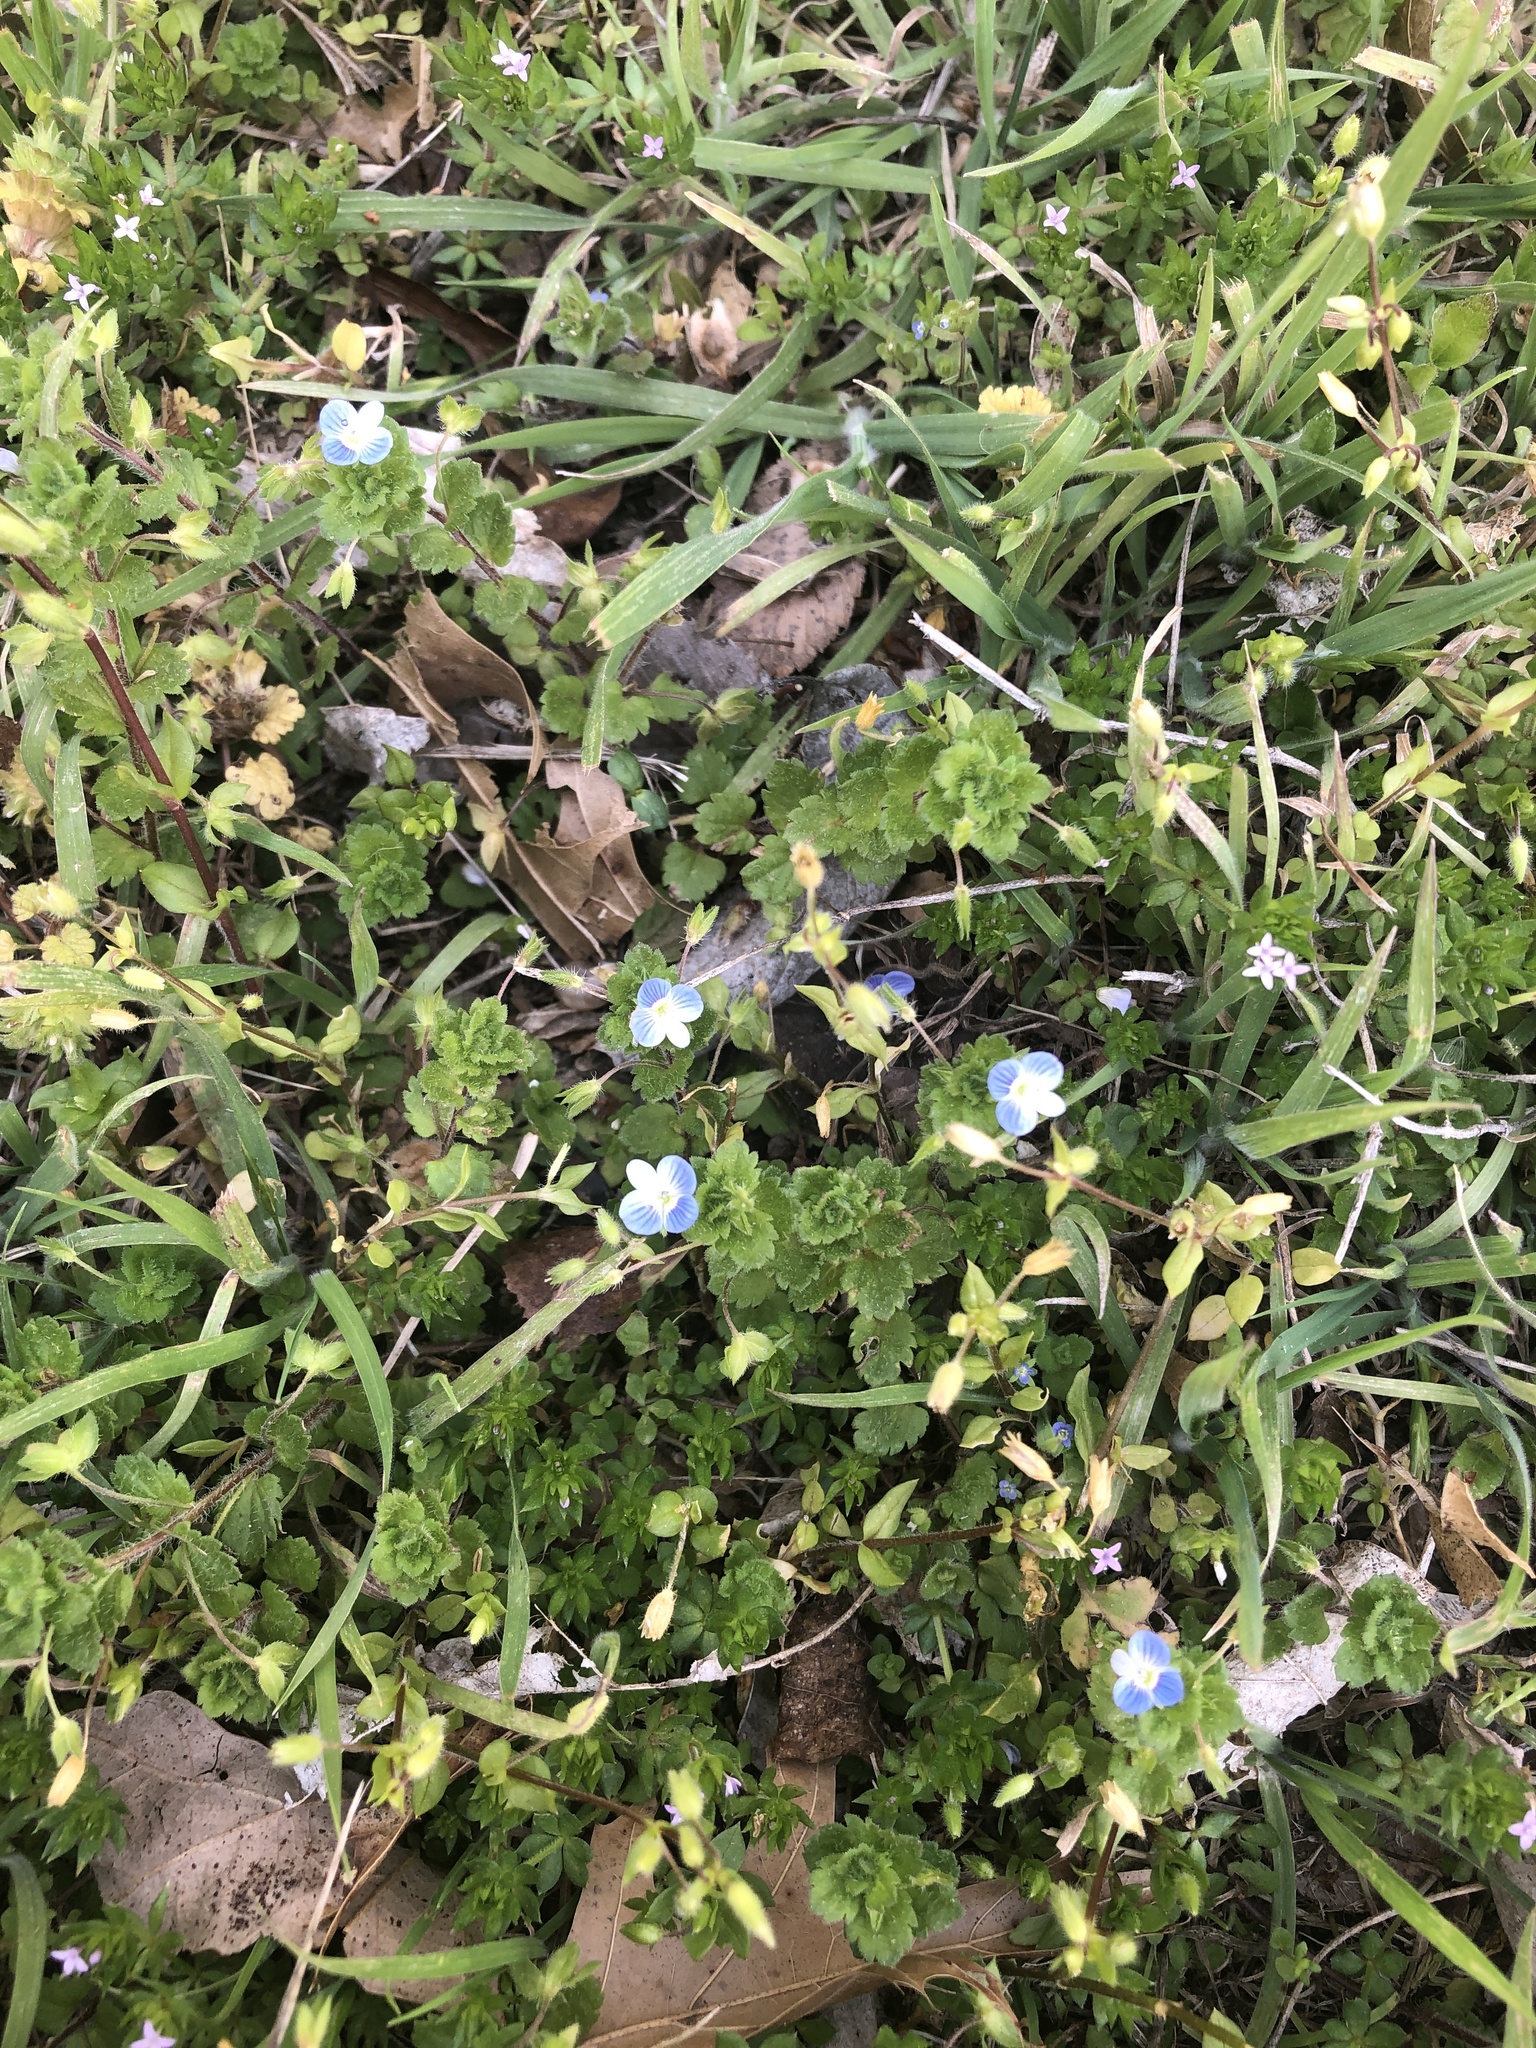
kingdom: Plantae
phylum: Tracheophyta
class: Magnoliopsida
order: Lamiales
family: Plantaginaceae
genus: Veronica
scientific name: Veronica persica
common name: Common field-speedwell
